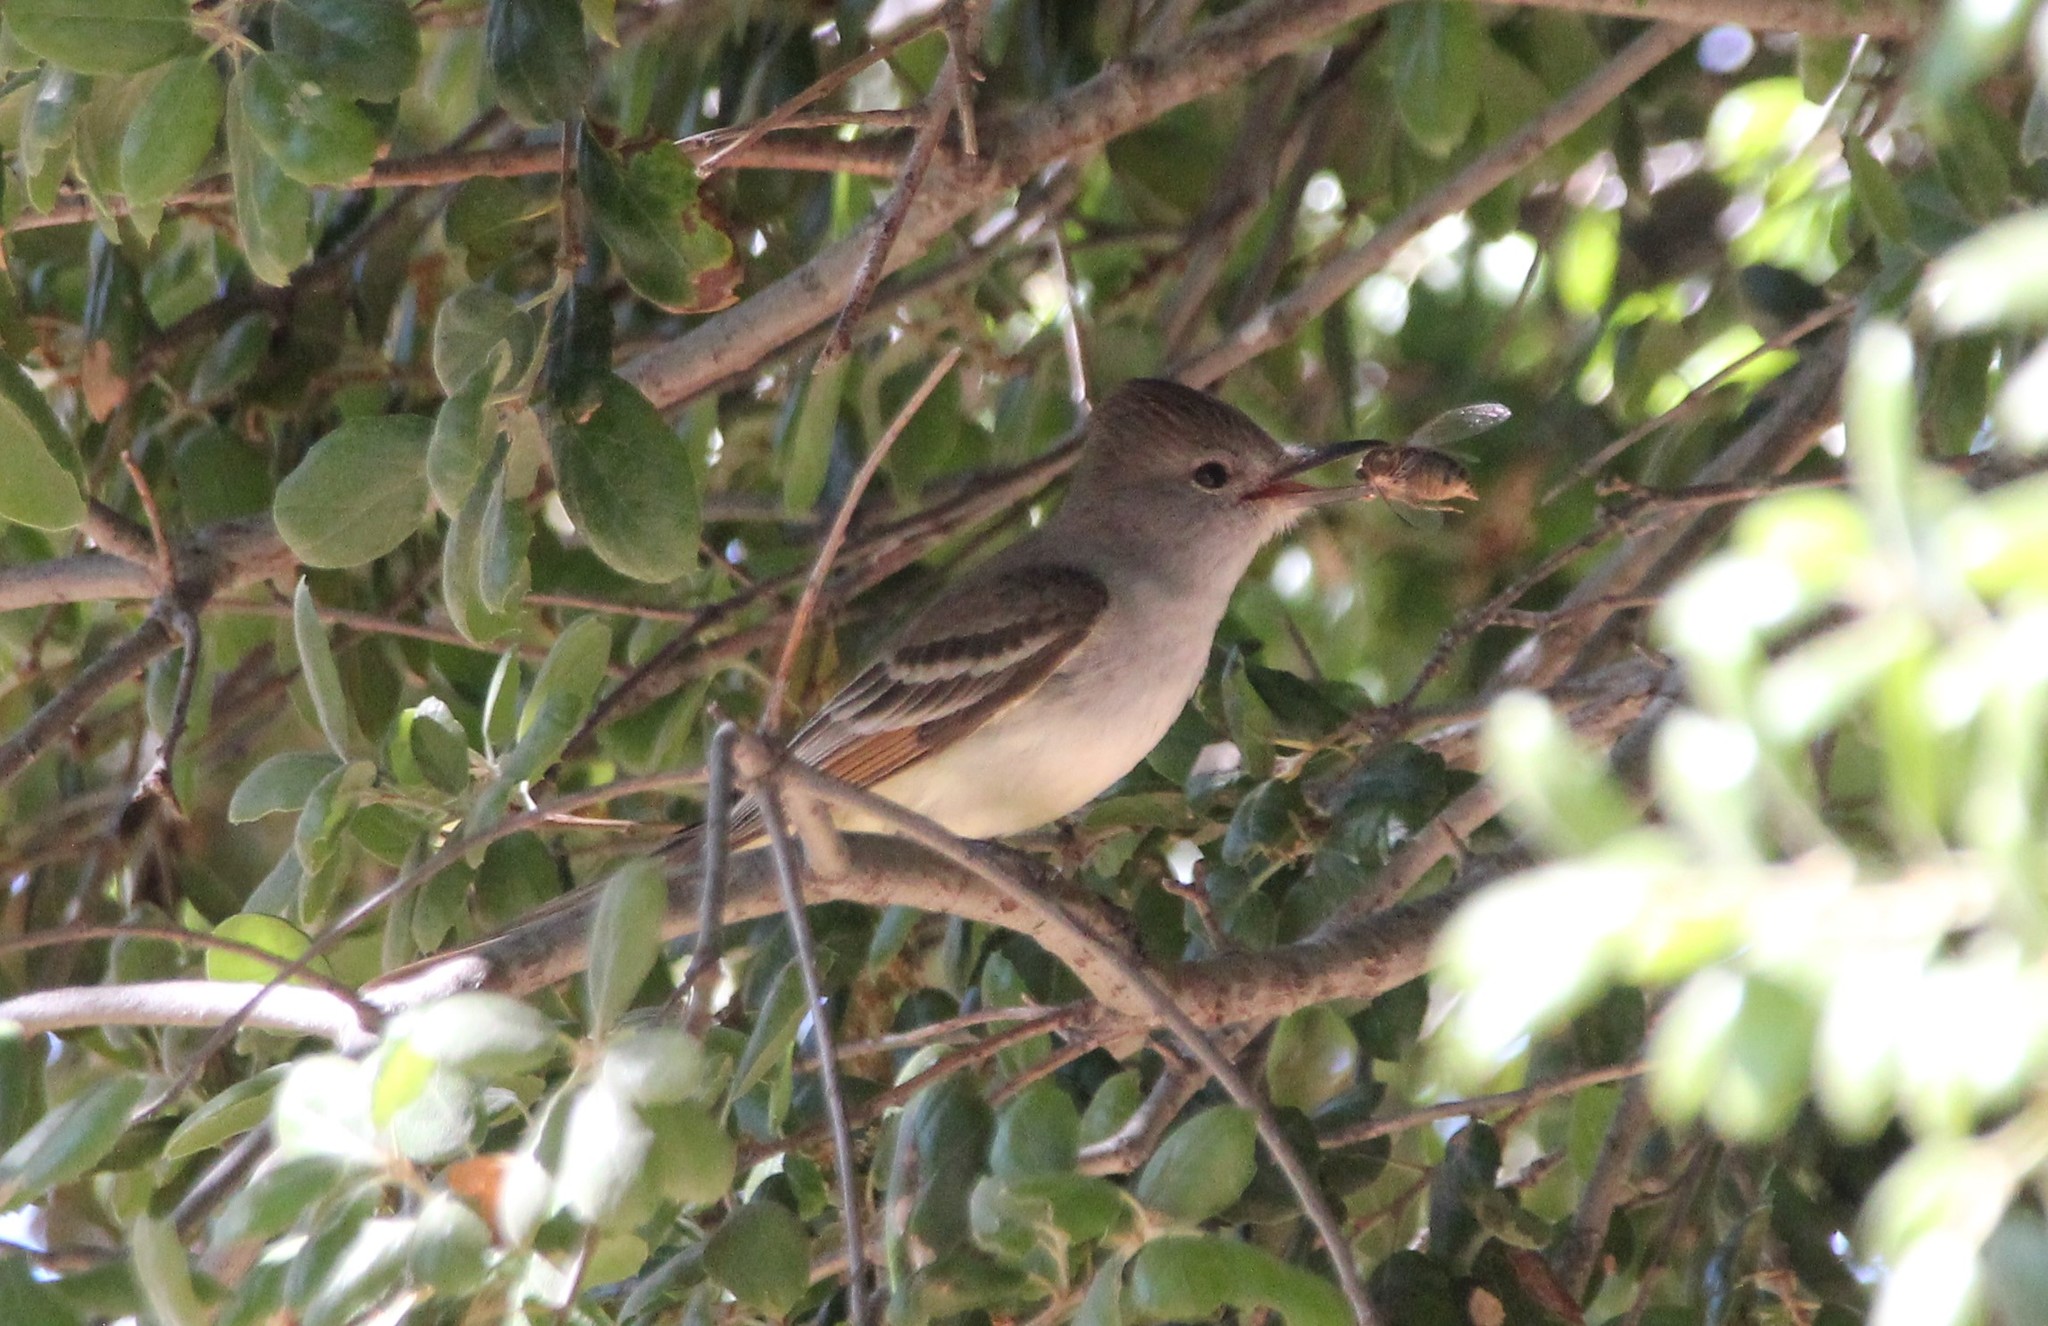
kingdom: Animalia
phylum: Chordata
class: Aves
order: Passeriformes
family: Tyrannidae
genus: Myiarchus
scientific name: Myiarchus cinerascens
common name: Ash-throated flycatcher
